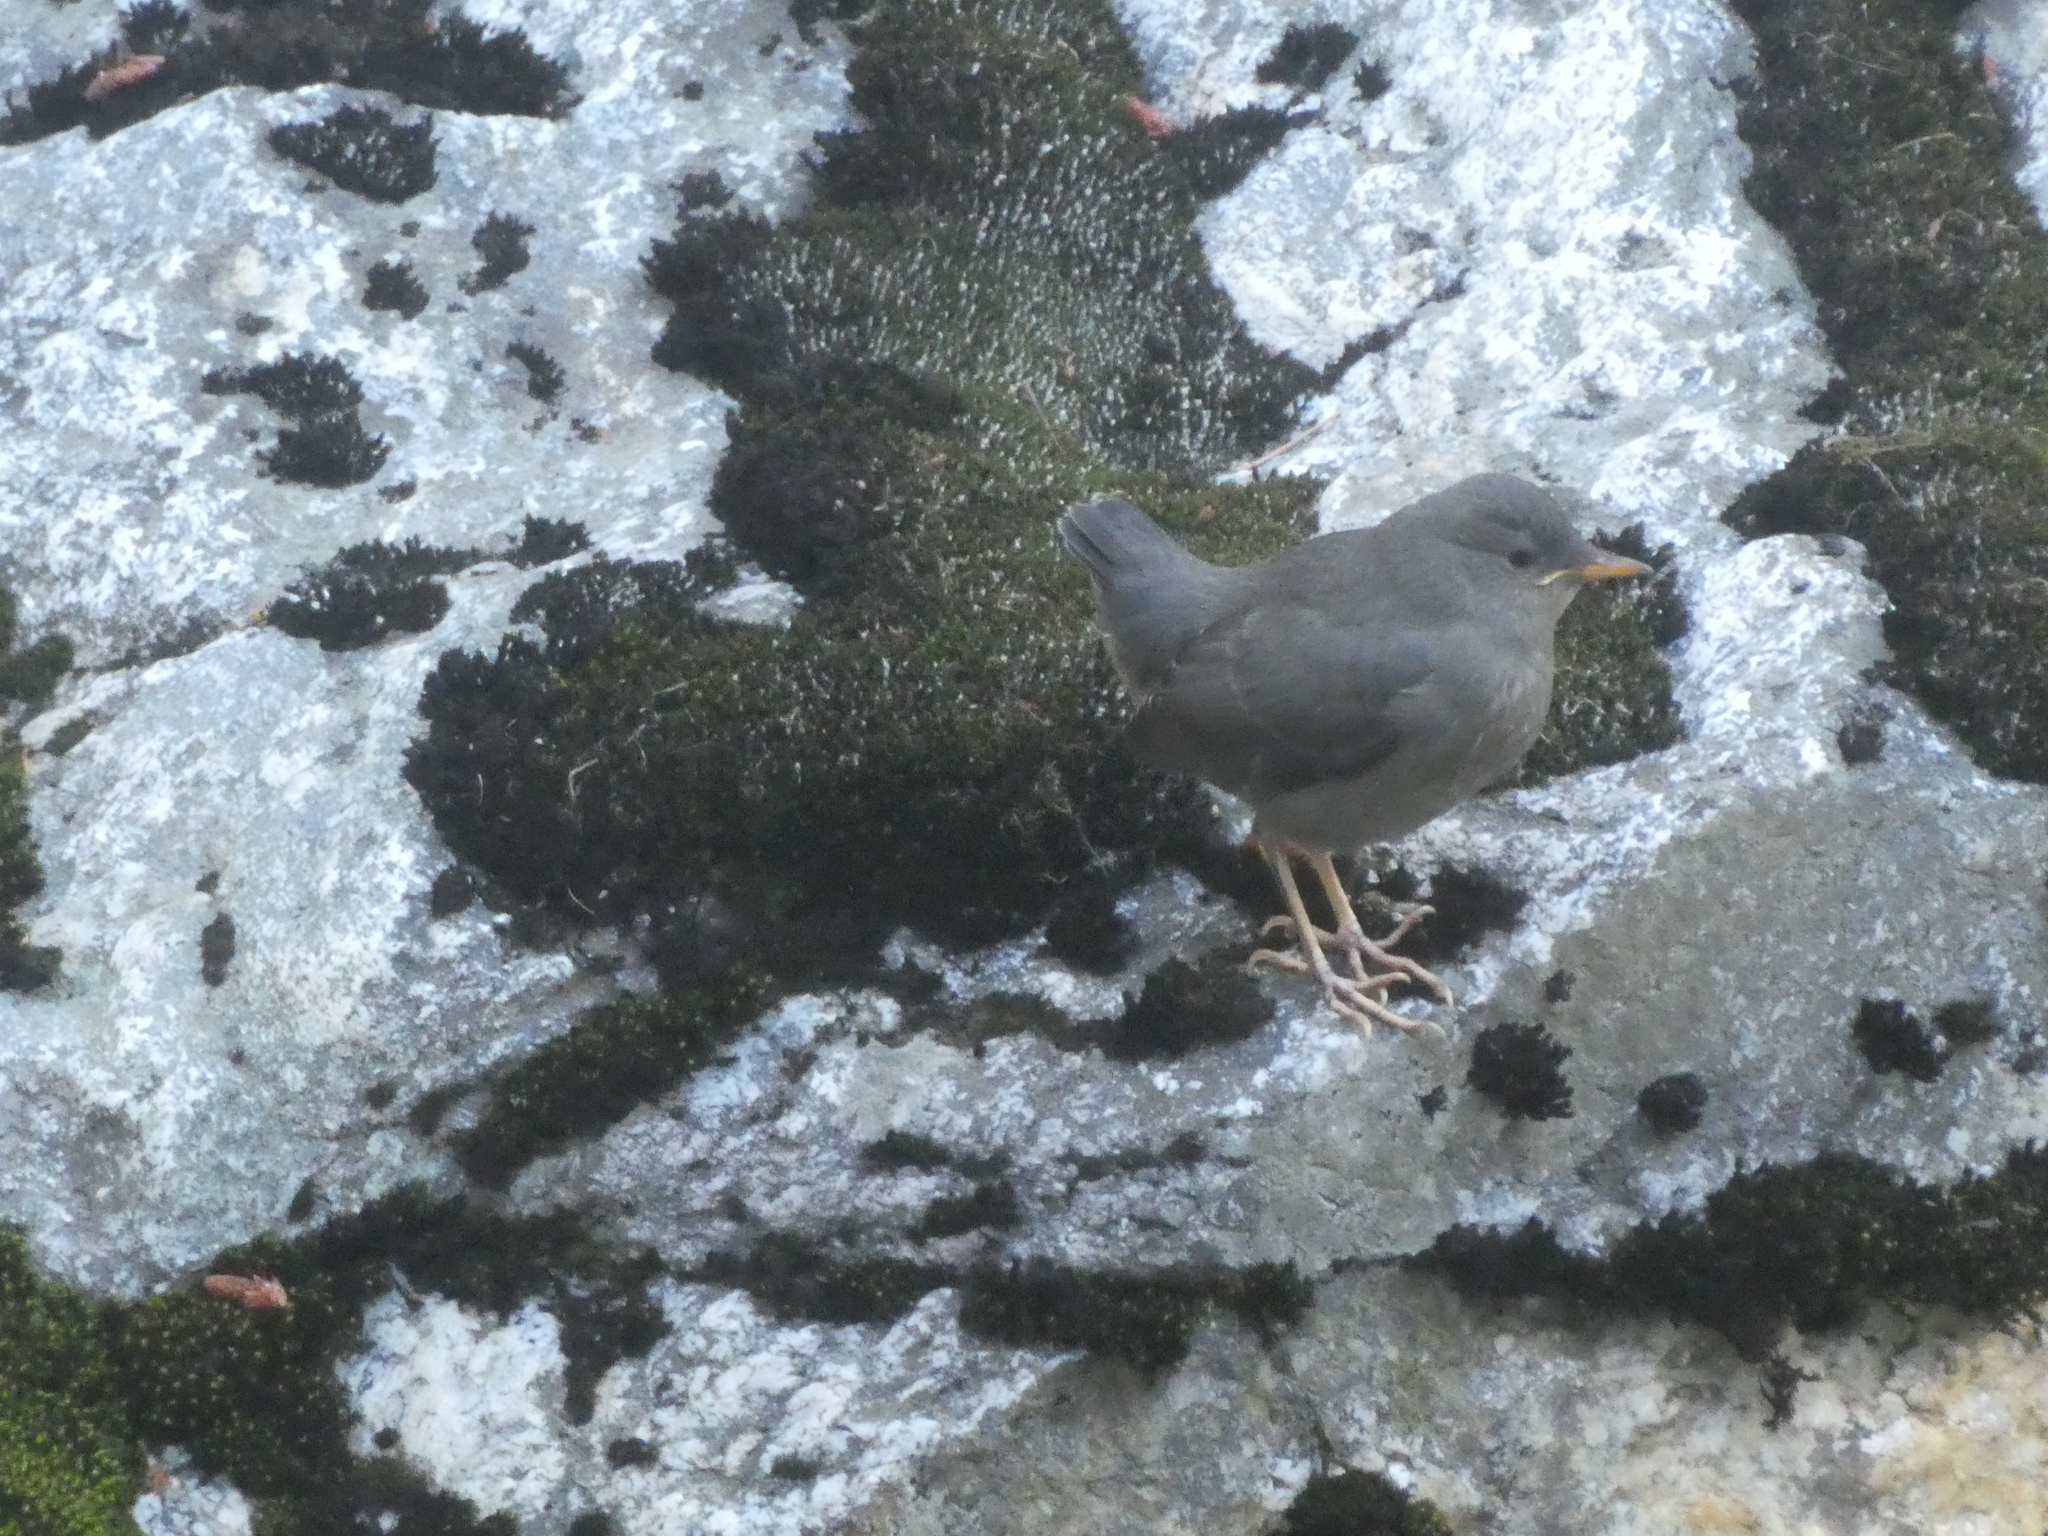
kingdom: Animalia
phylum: Chordata
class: Aves
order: Passeriformes
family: Cinclidae
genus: Cinclus
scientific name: Cinclus mexicanus
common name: American dipper
